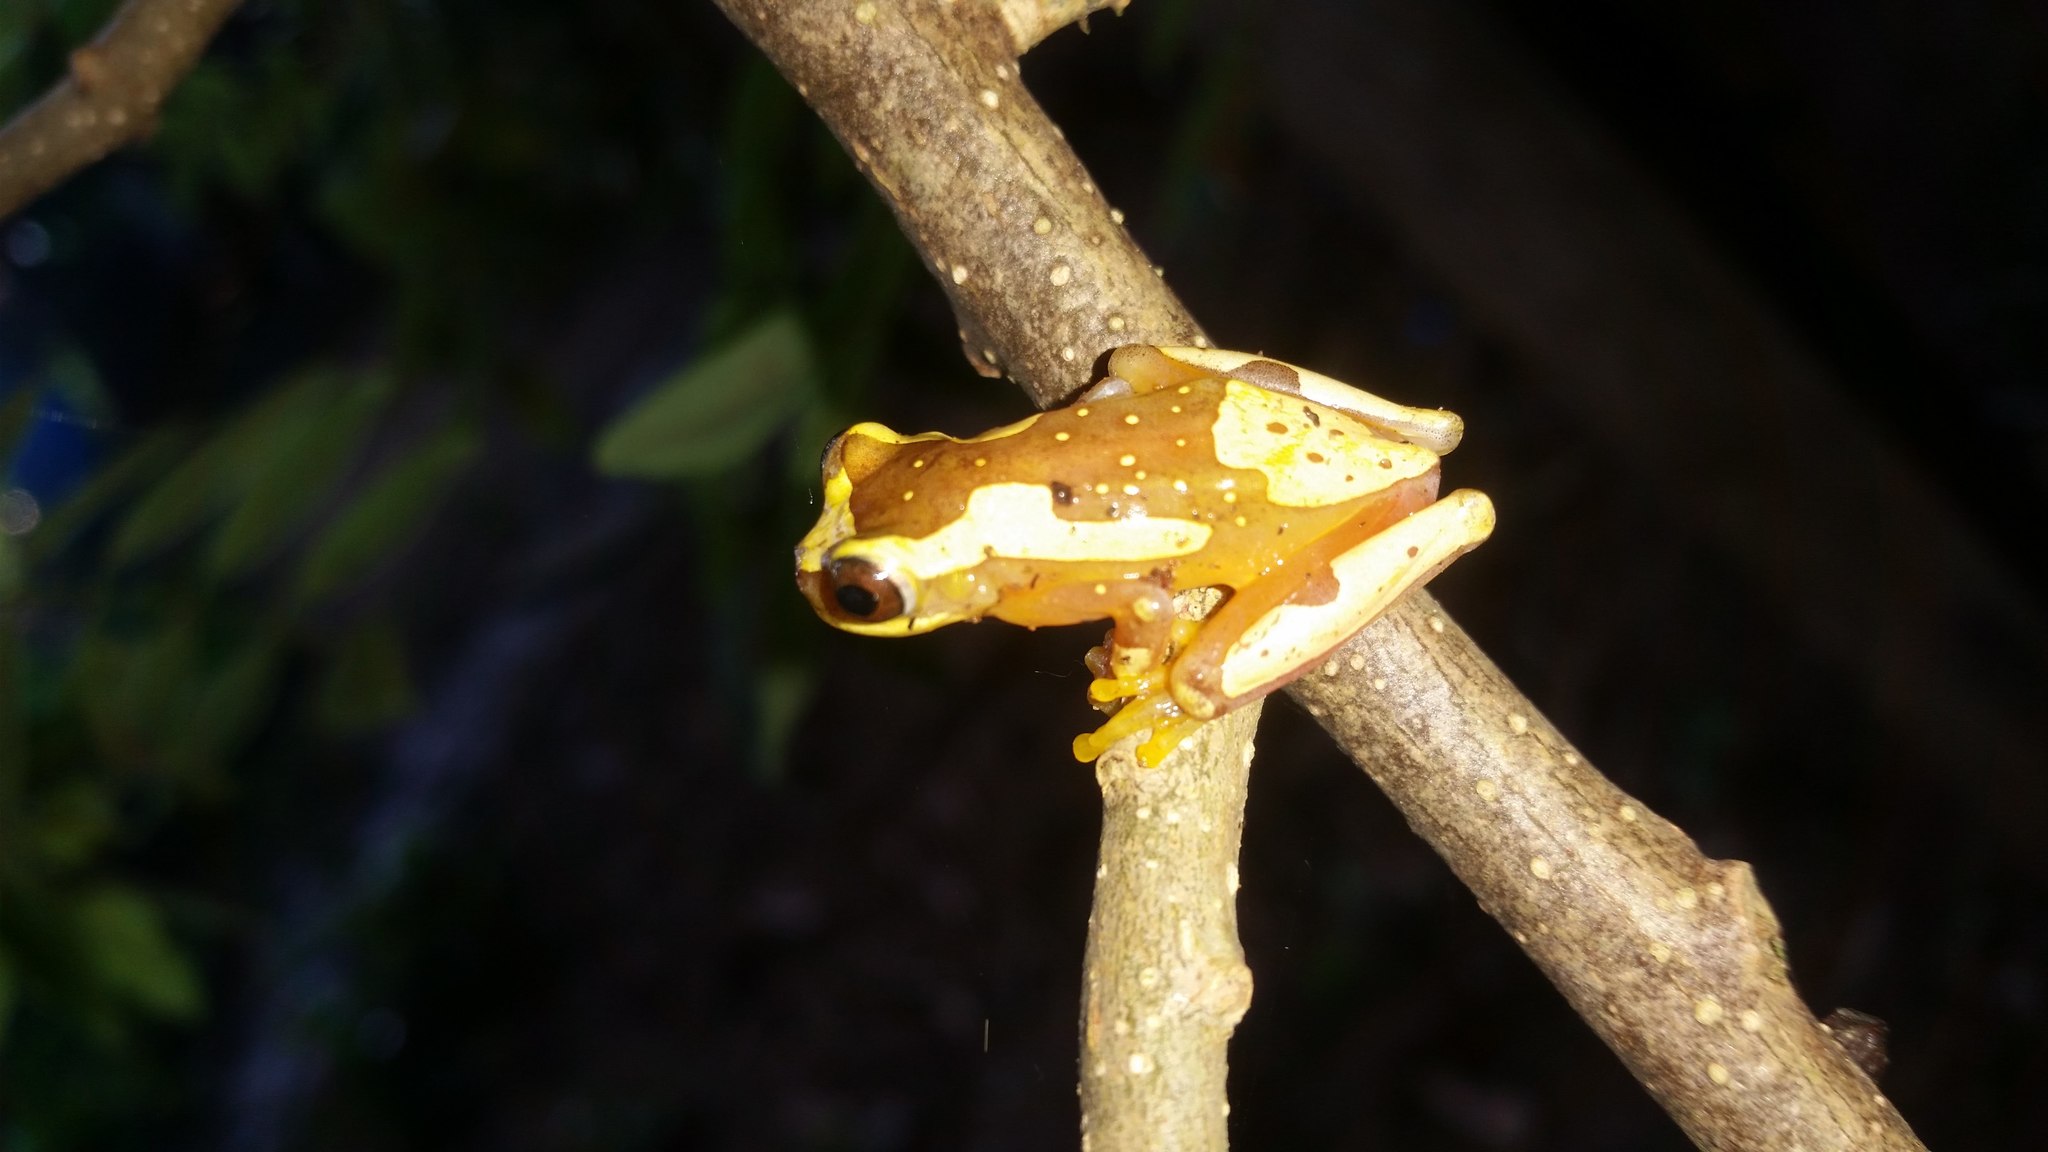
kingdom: Animalia
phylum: Chordata
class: Amphibia
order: Anura
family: Hylidae
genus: Dendropsophus
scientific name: Dendropsophus ebraccatus
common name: Hourglass treefrog
